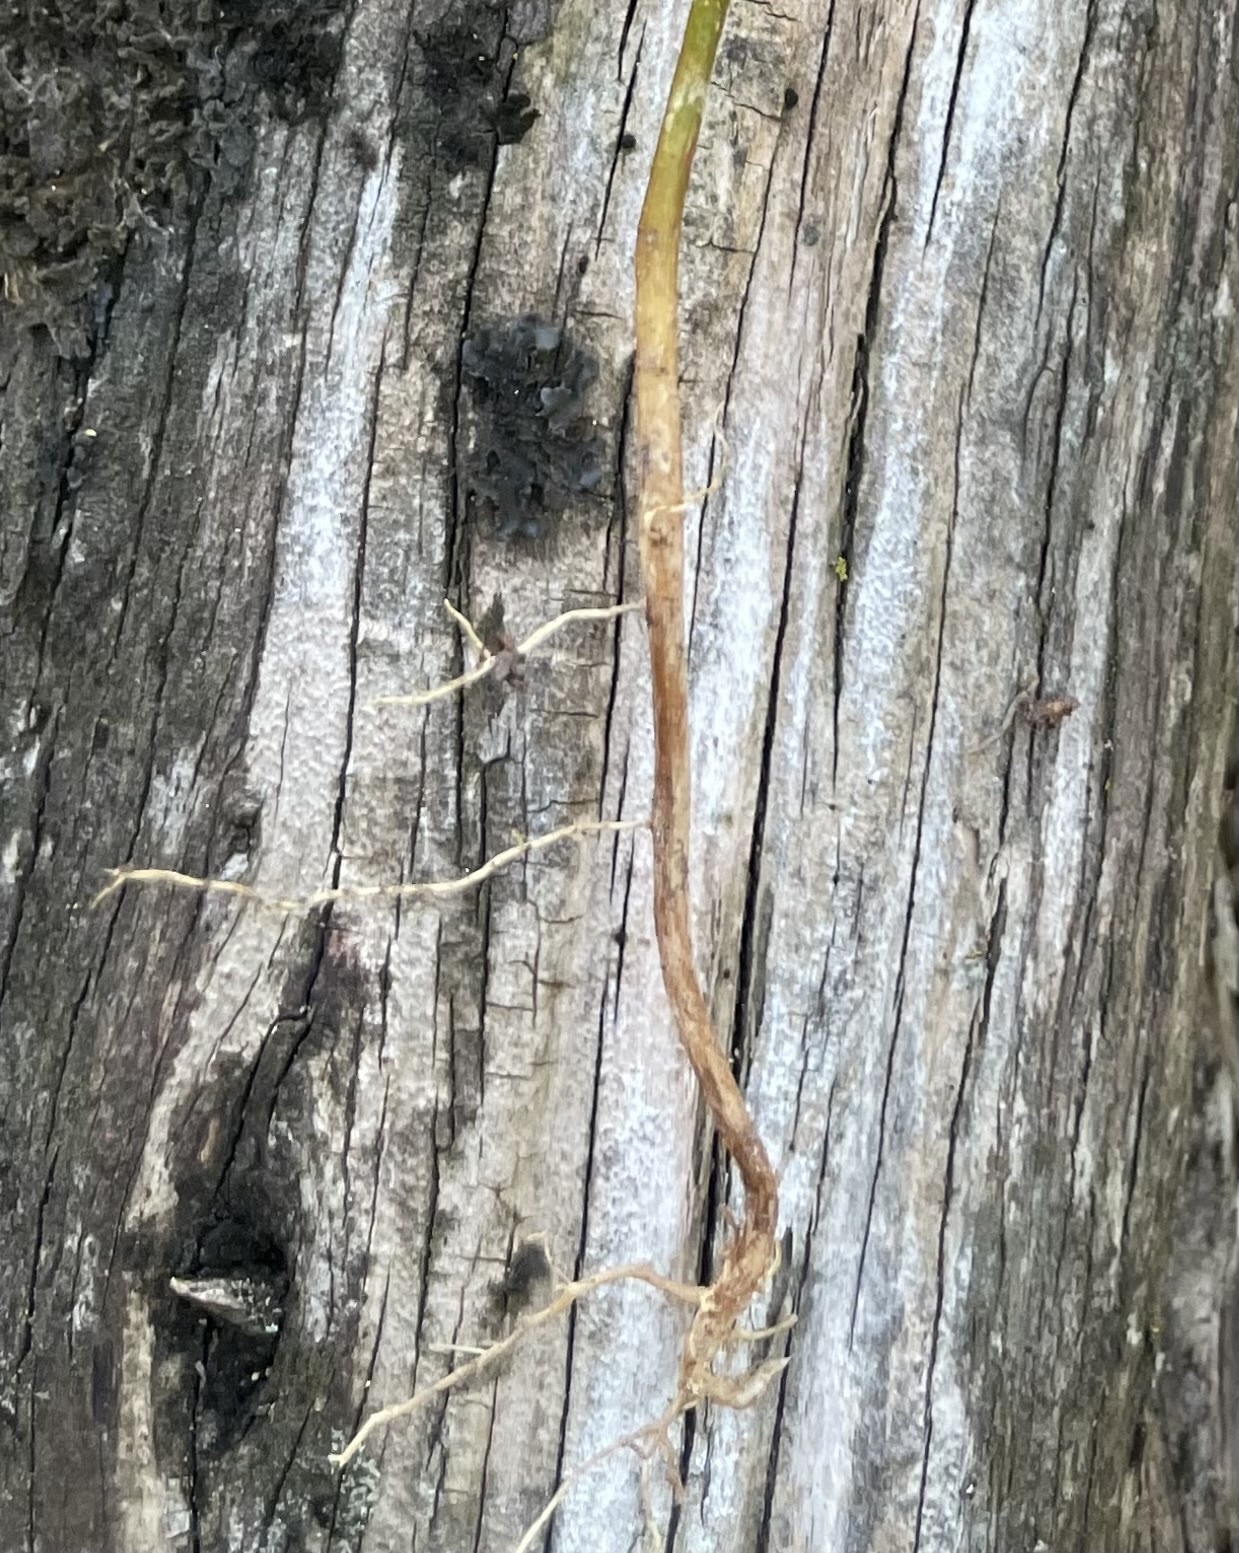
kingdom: Plantae
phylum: Tracheophyta
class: Magnoliopsida
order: Sapindales
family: Meliaceae
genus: Melia
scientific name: Melia azedarach
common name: Chinaberrytree
